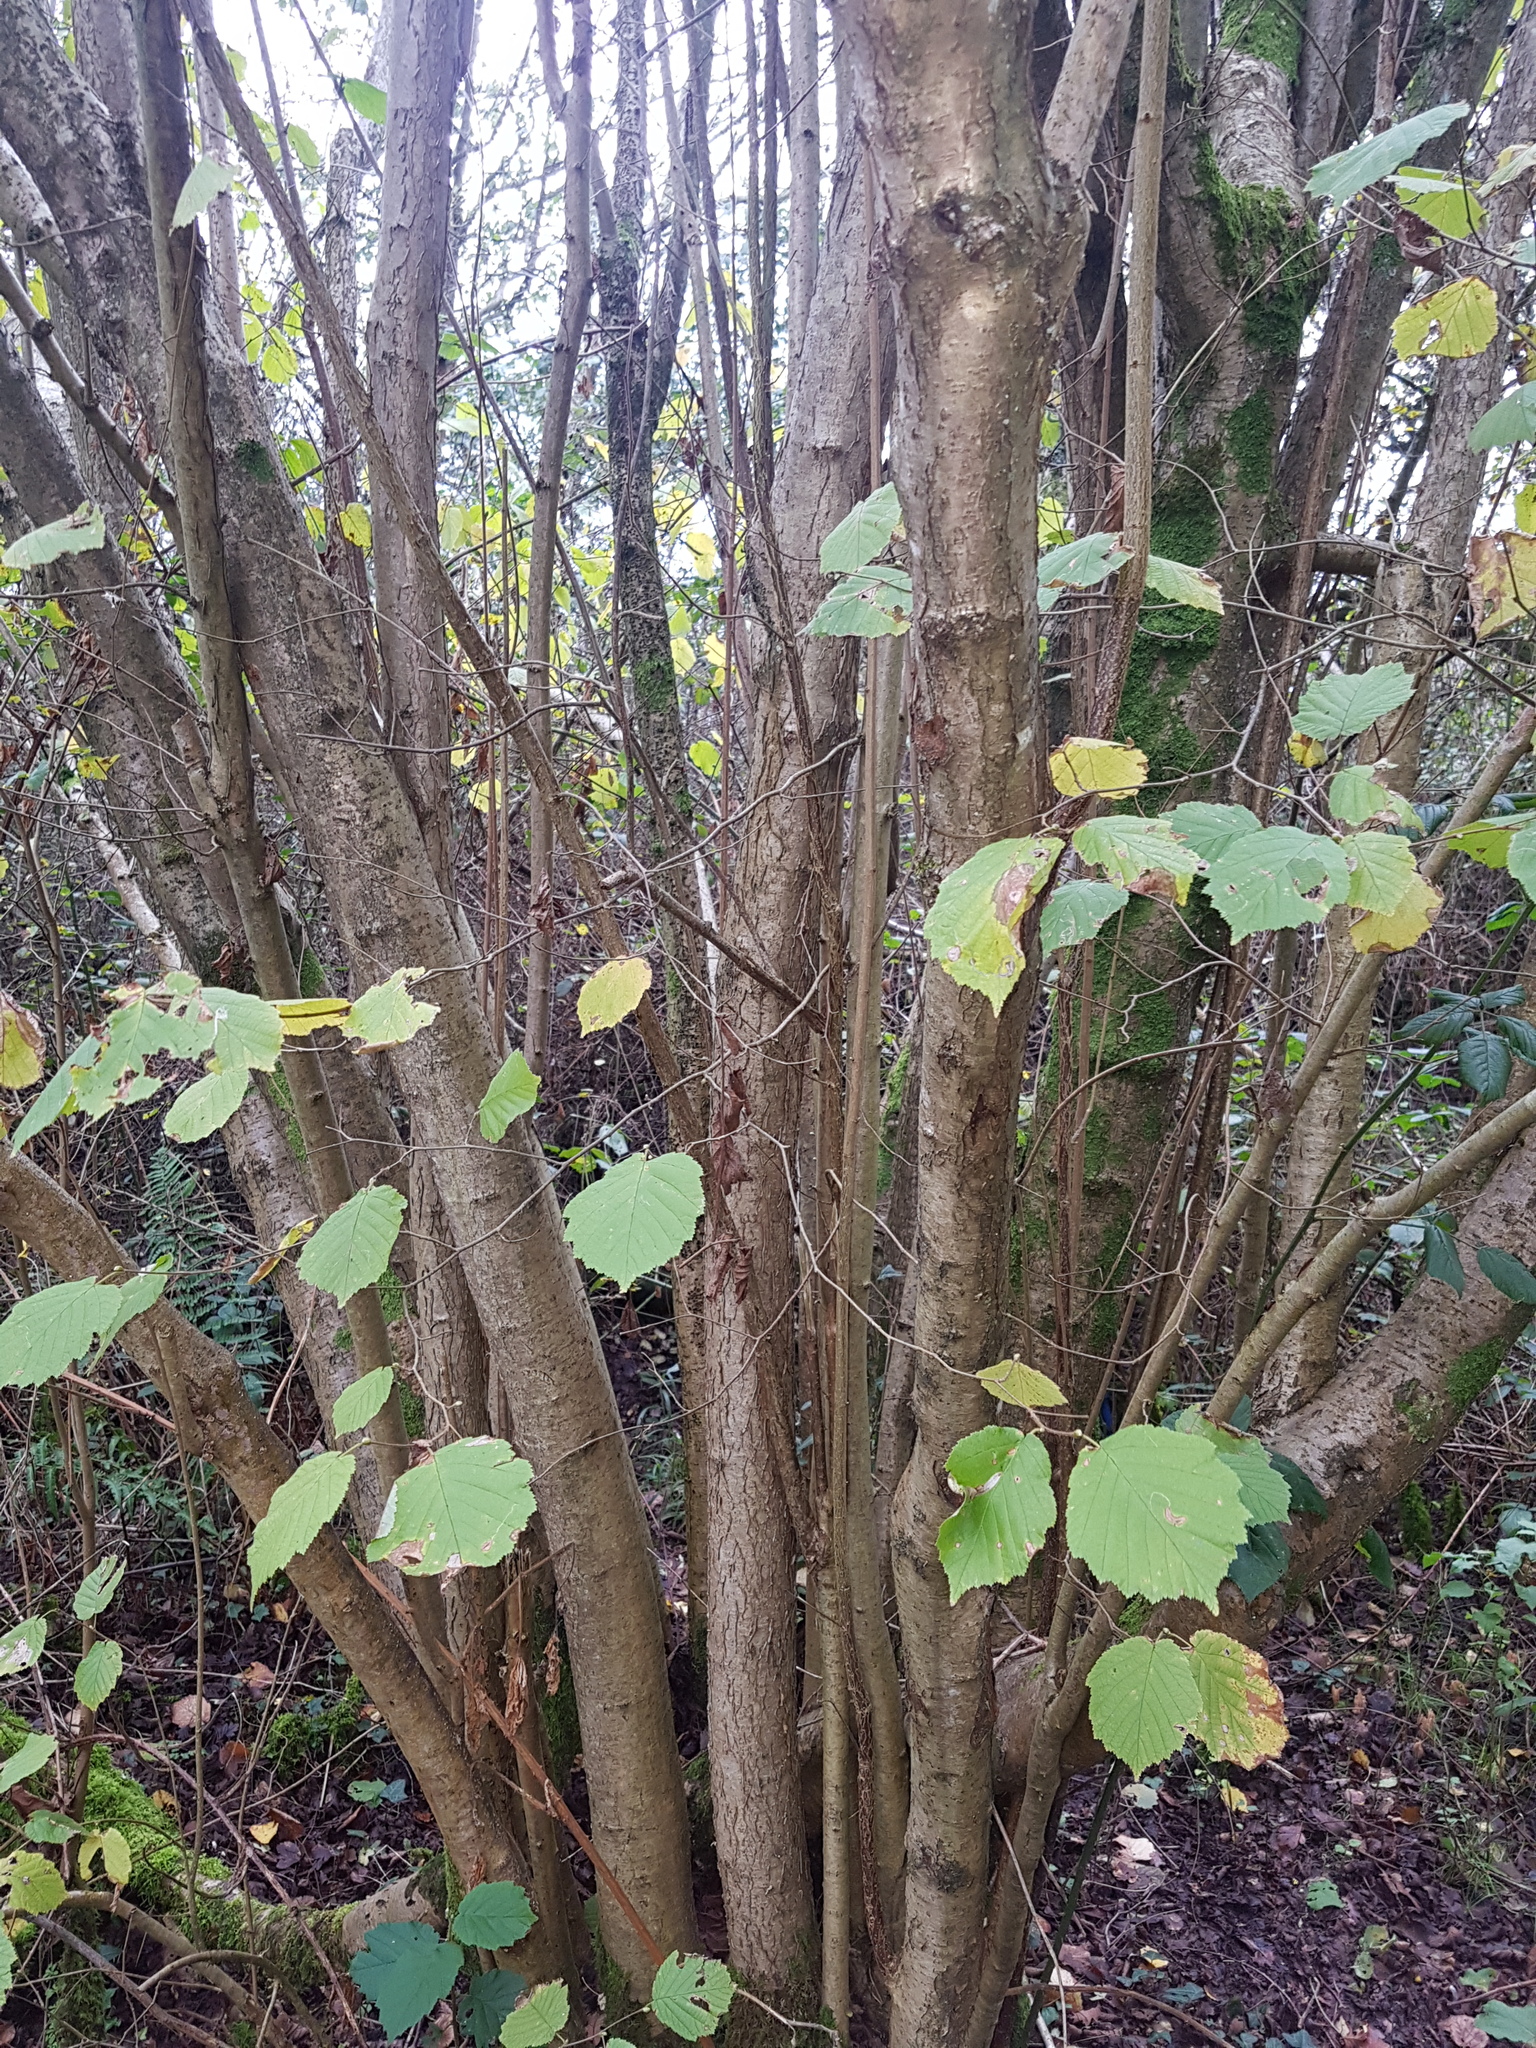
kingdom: Plantae
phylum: Tracheophyta
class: Magnoliopsida
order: Fagales
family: Betulaceae
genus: Corylus
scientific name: Corylus avellana
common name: European hazel
